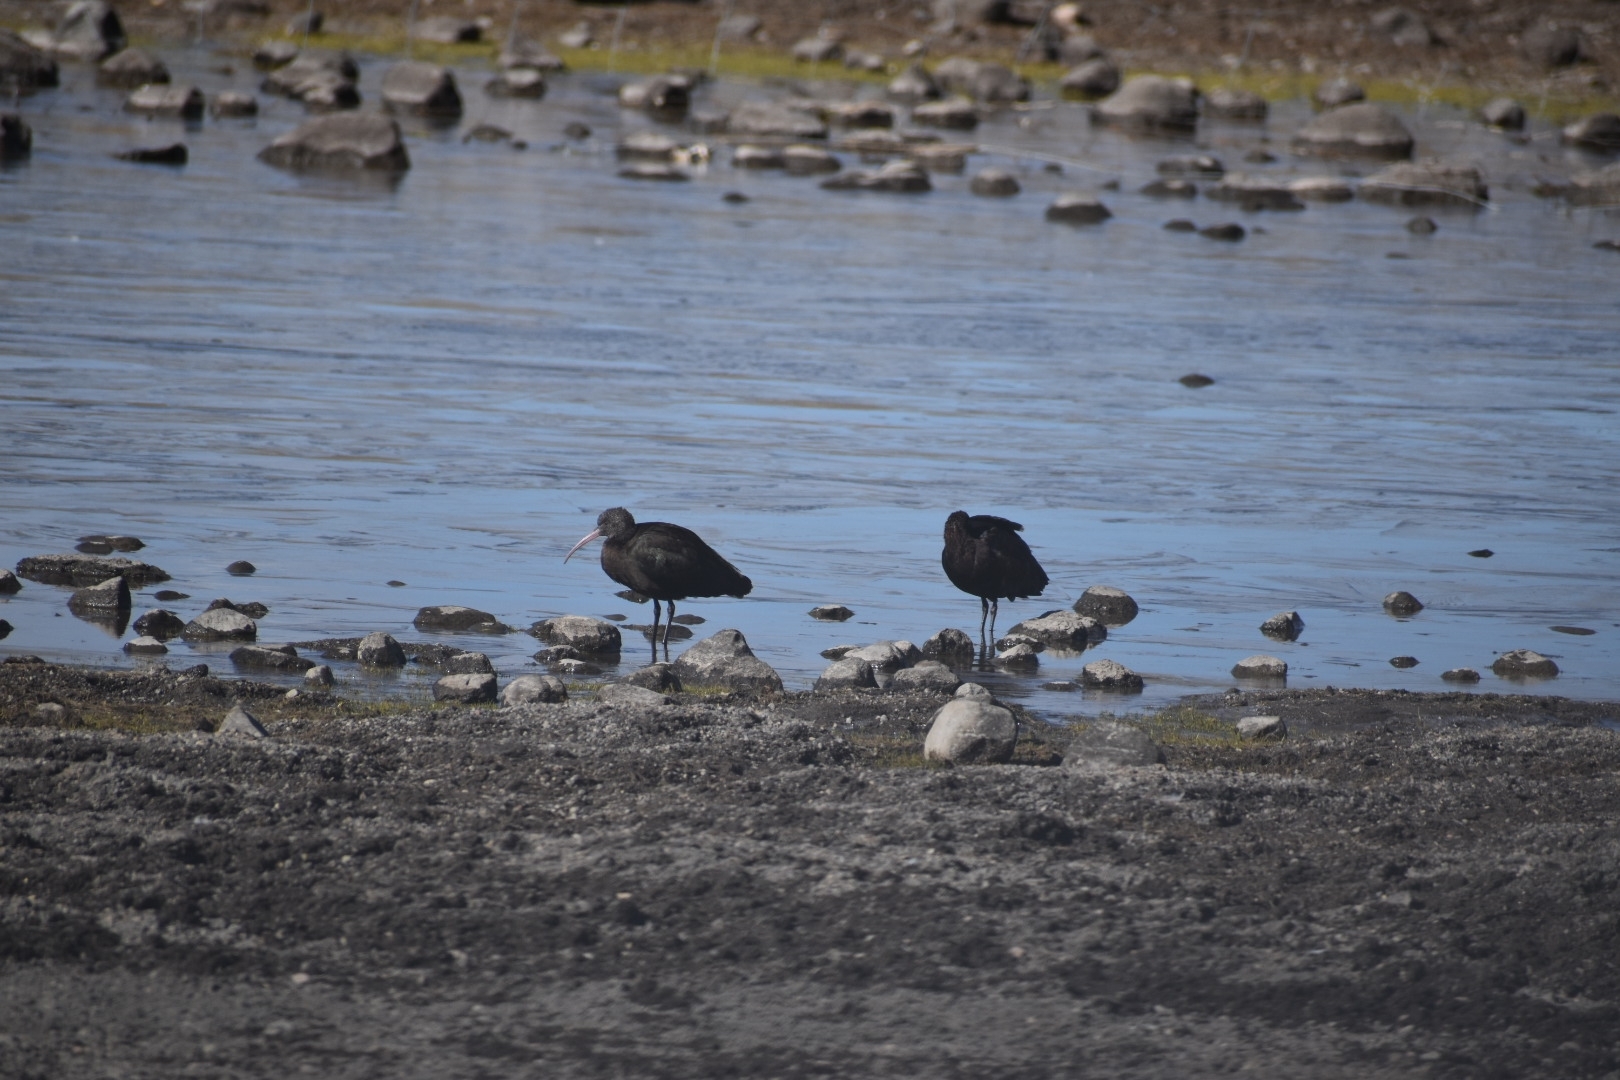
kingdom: Animalia
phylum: Chordata
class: Aves
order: Pelecaniformes
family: Threskiornithidae
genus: Plegadis
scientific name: Plegadis ridgwayi
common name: Puna ibis
